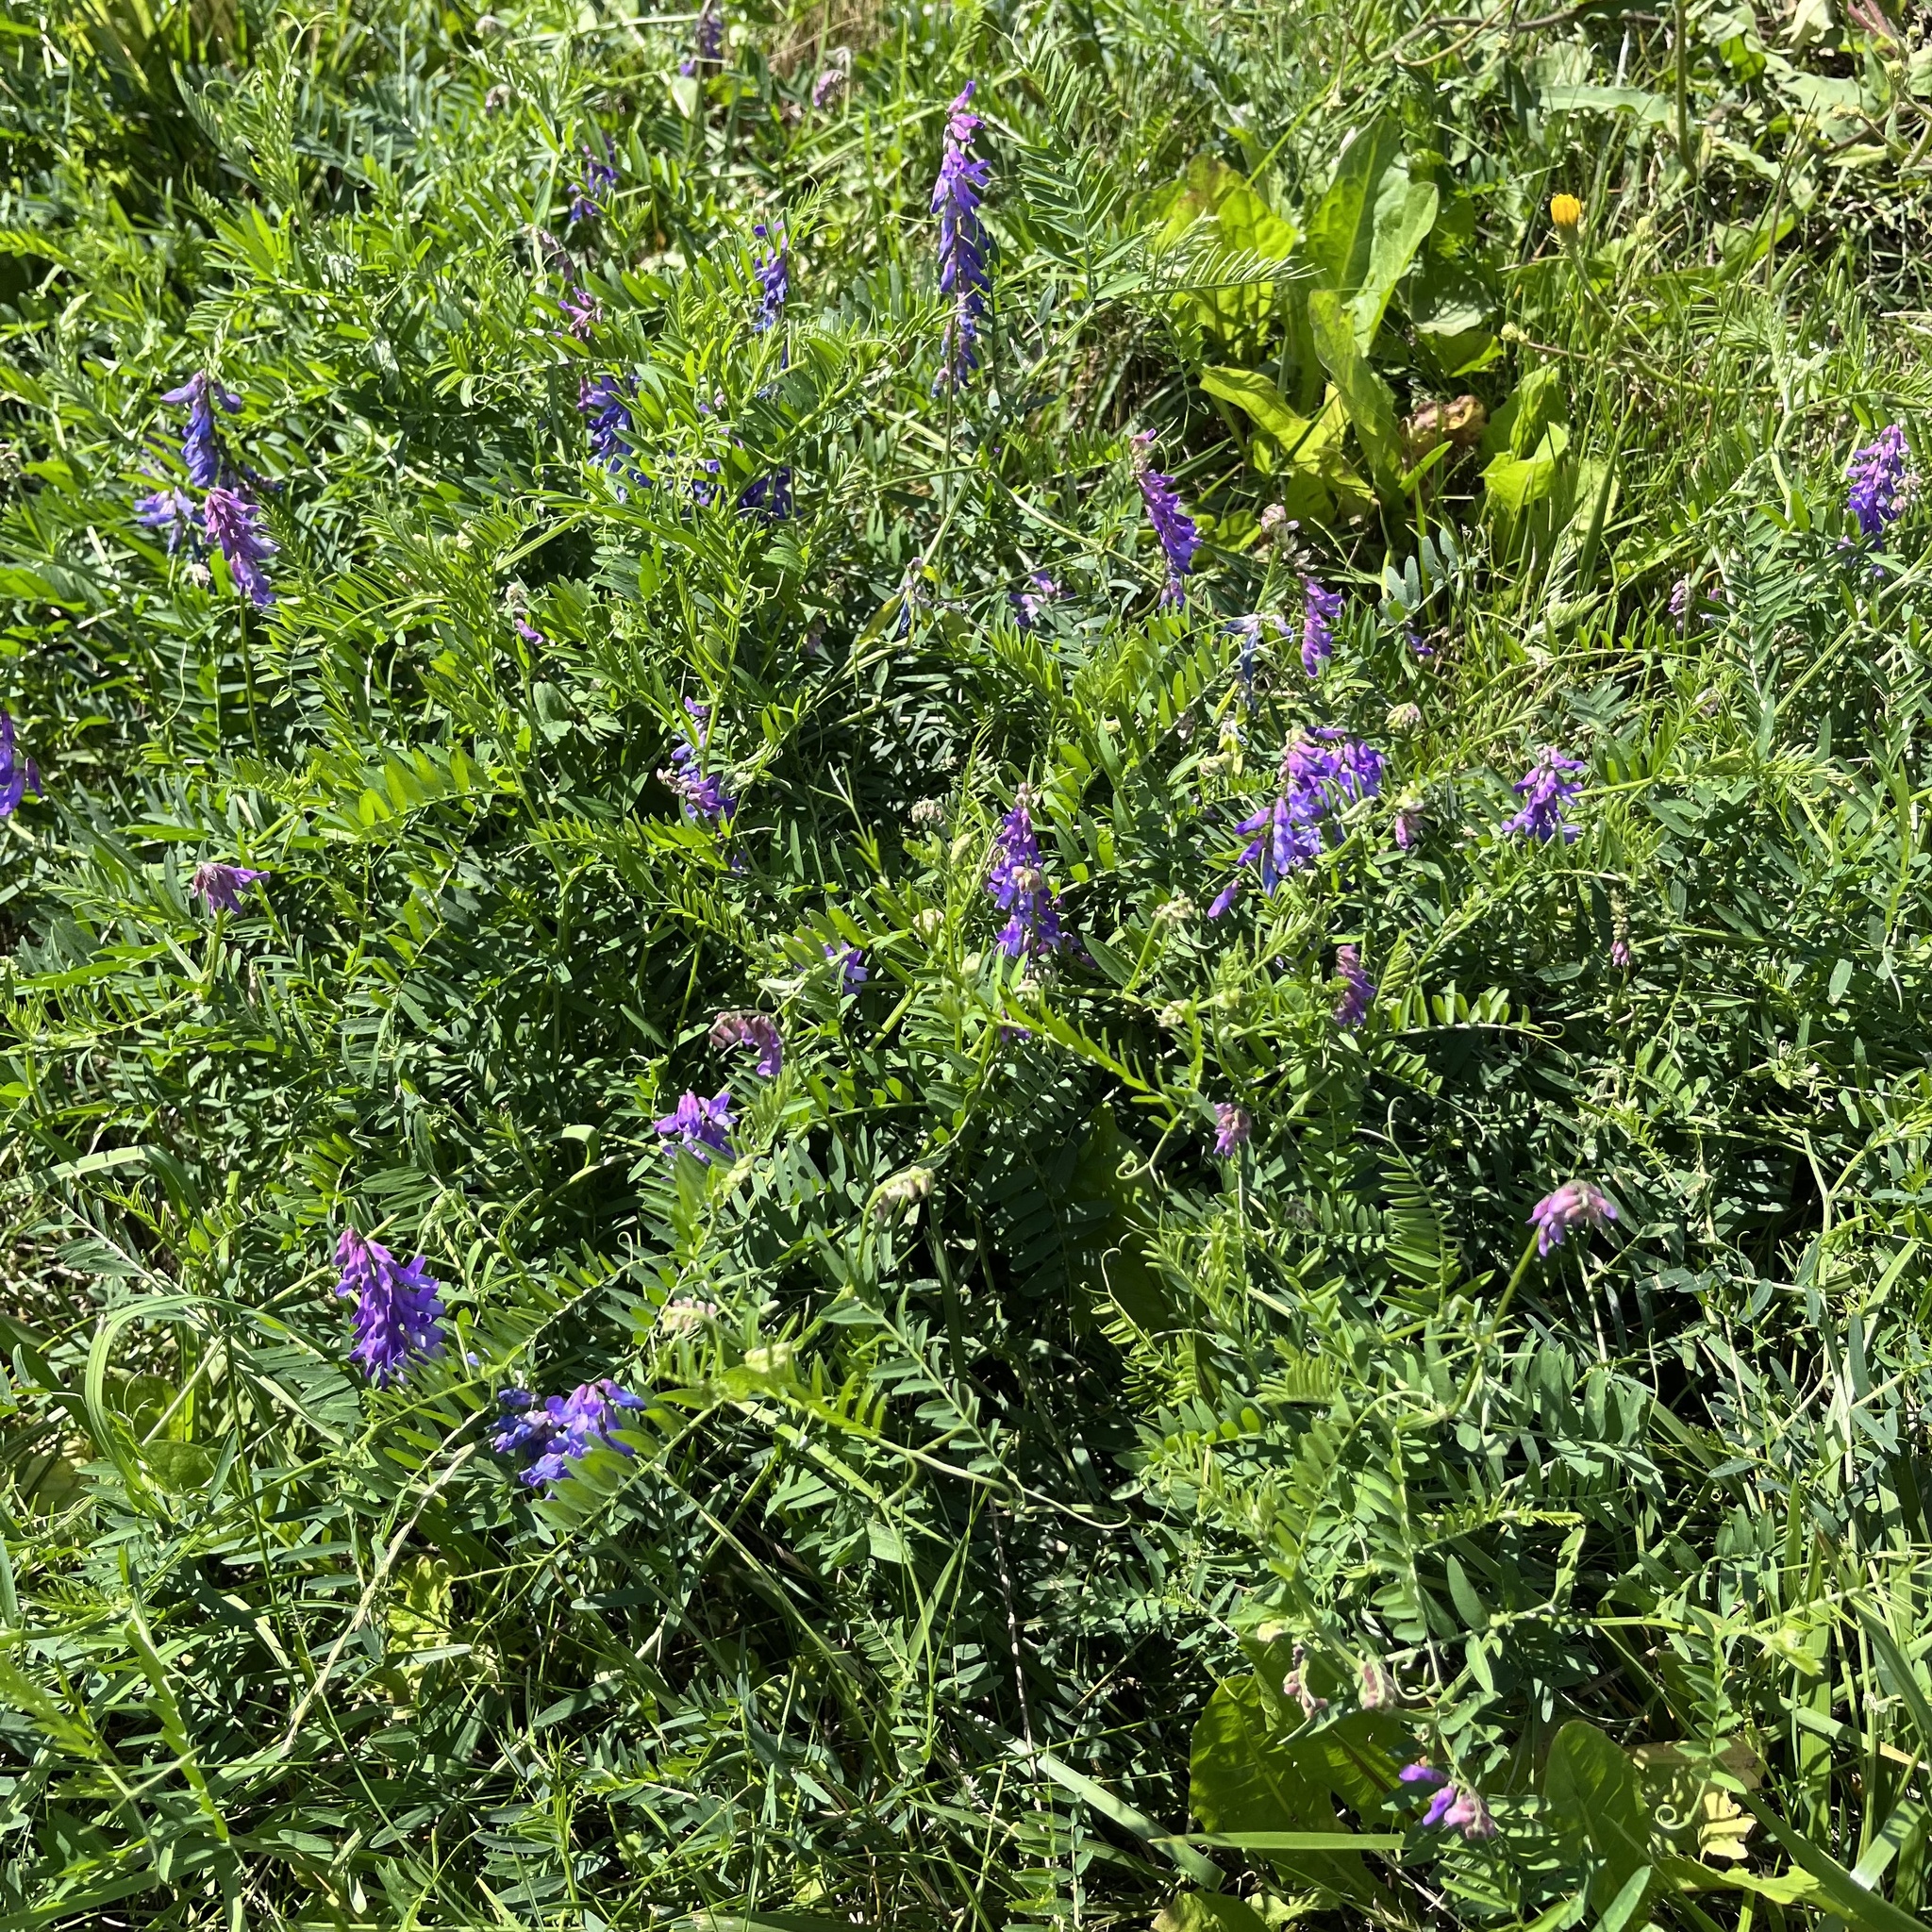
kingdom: Plantae
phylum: Tracheophyta
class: Magnoliopsida
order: Fabales
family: Fabaceae
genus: Vicia
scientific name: Vicia cracca
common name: Bird vetch
